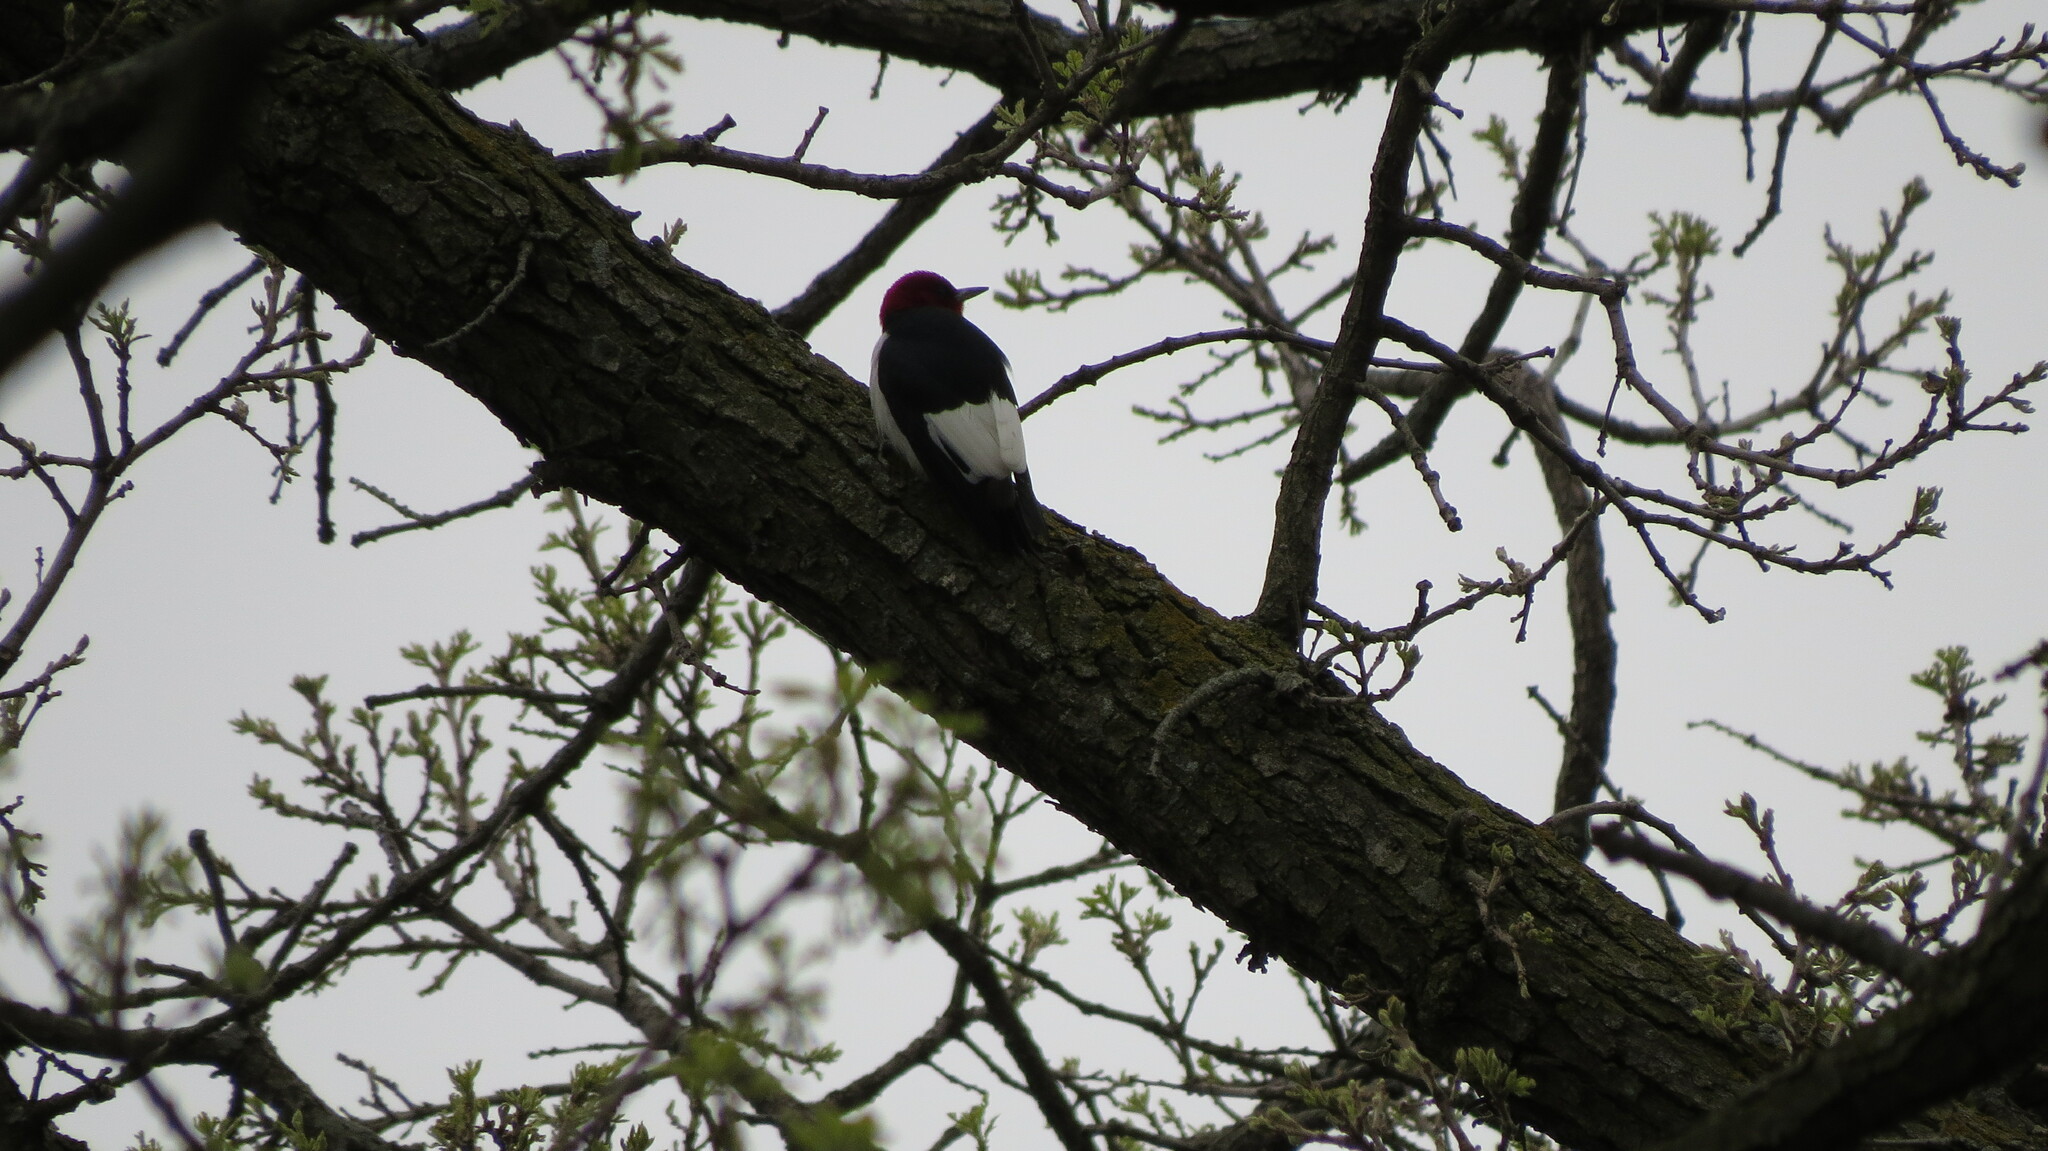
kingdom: Animalia
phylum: Chordata
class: Aves
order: Piciformes
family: Picidae
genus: Melanerpes
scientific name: Melanerpes erythrocephalus
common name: Red-headed woodpecker
